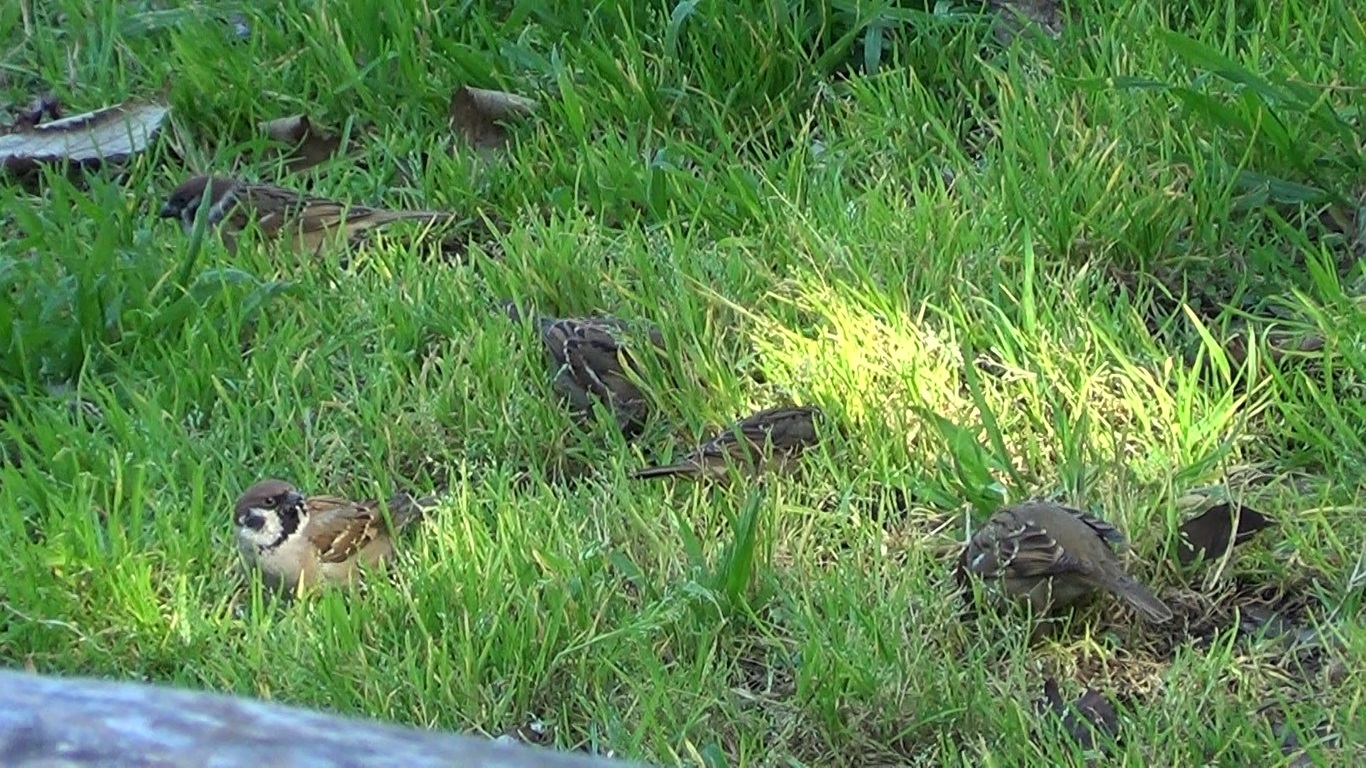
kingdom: Animalia
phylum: Chordata
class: Aves
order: Passeriformes
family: Passeridae
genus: Passer
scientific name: Passer montanus
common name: Eurasian tree sparrow
